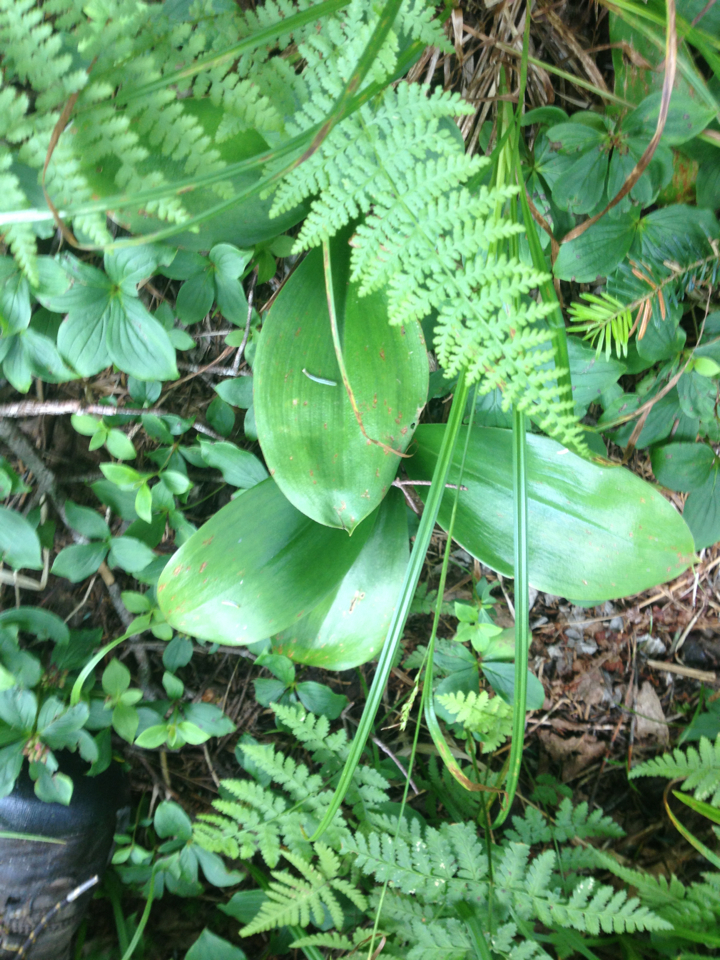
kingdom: Plantae
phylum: Tracheophyta
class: Liliopsida
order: Liliales
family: Liliaceae
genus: Clintonia
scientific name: Clintonia borealis
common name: Yellow clintonia
